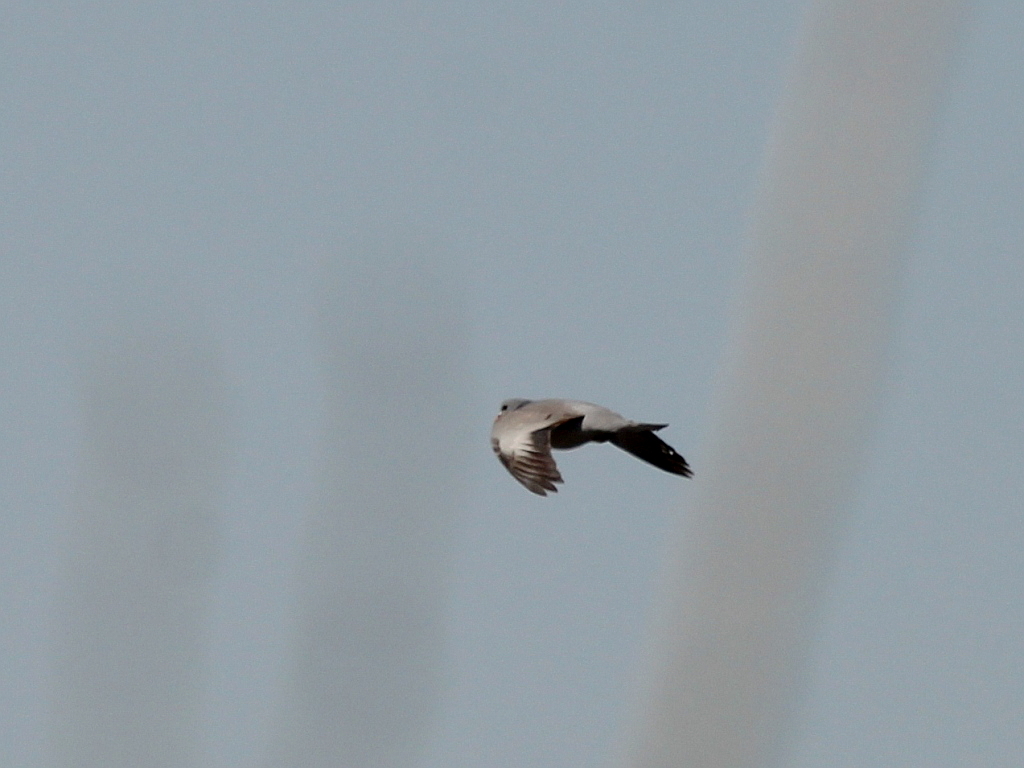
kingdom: Animalia
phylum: Chordata
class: Aves
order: Columbiformes
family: Columbidae
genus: Columba
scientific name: Columba oenas
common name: Stock dove
